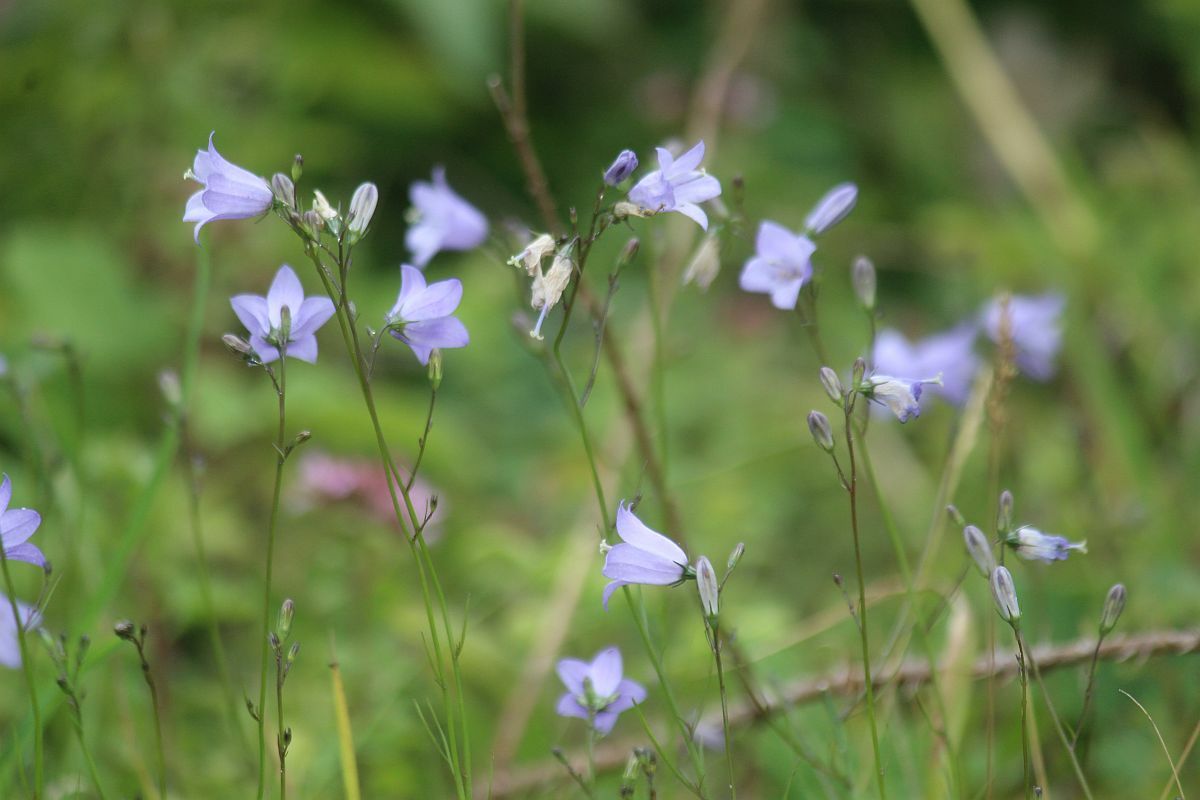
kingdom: Plantae
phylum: Tracheophyta
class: Magnoliopsida
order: Asterales
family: Campanulaceae
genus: Campanula
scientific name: Campanula rotundifolia
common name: Harebell
